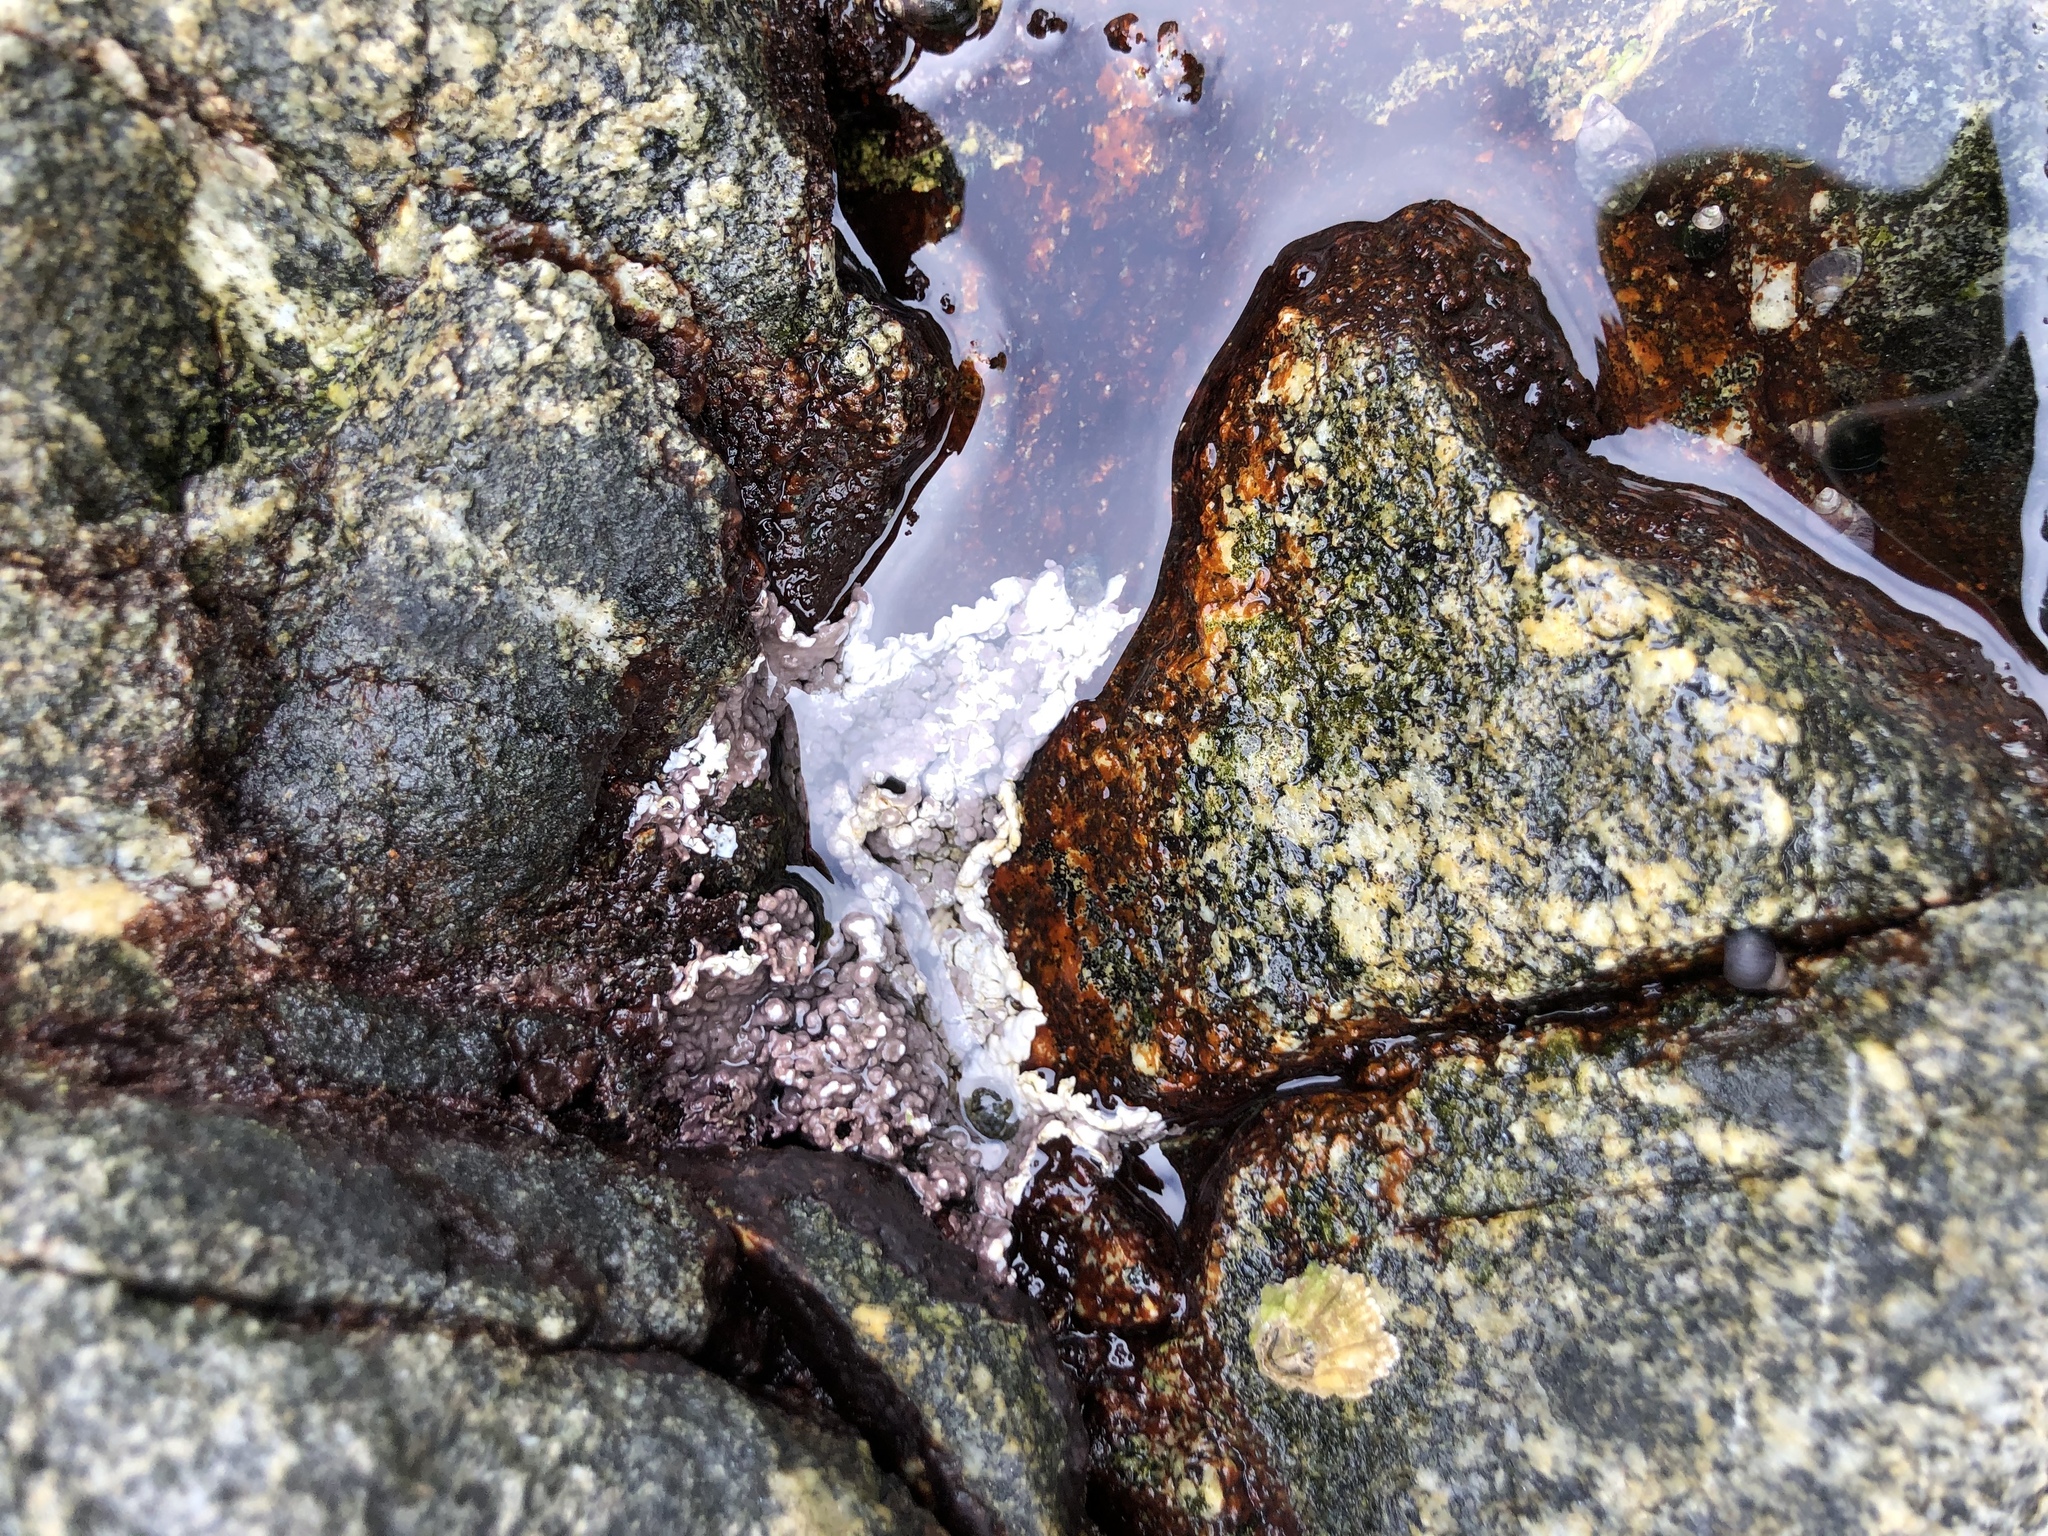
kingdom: Plantae
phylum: Rhodophyta
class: Florideophyceae
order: Corallinales
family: Corallinaceae
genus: Chamberlainium
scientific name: Chamberlainium tumidum
